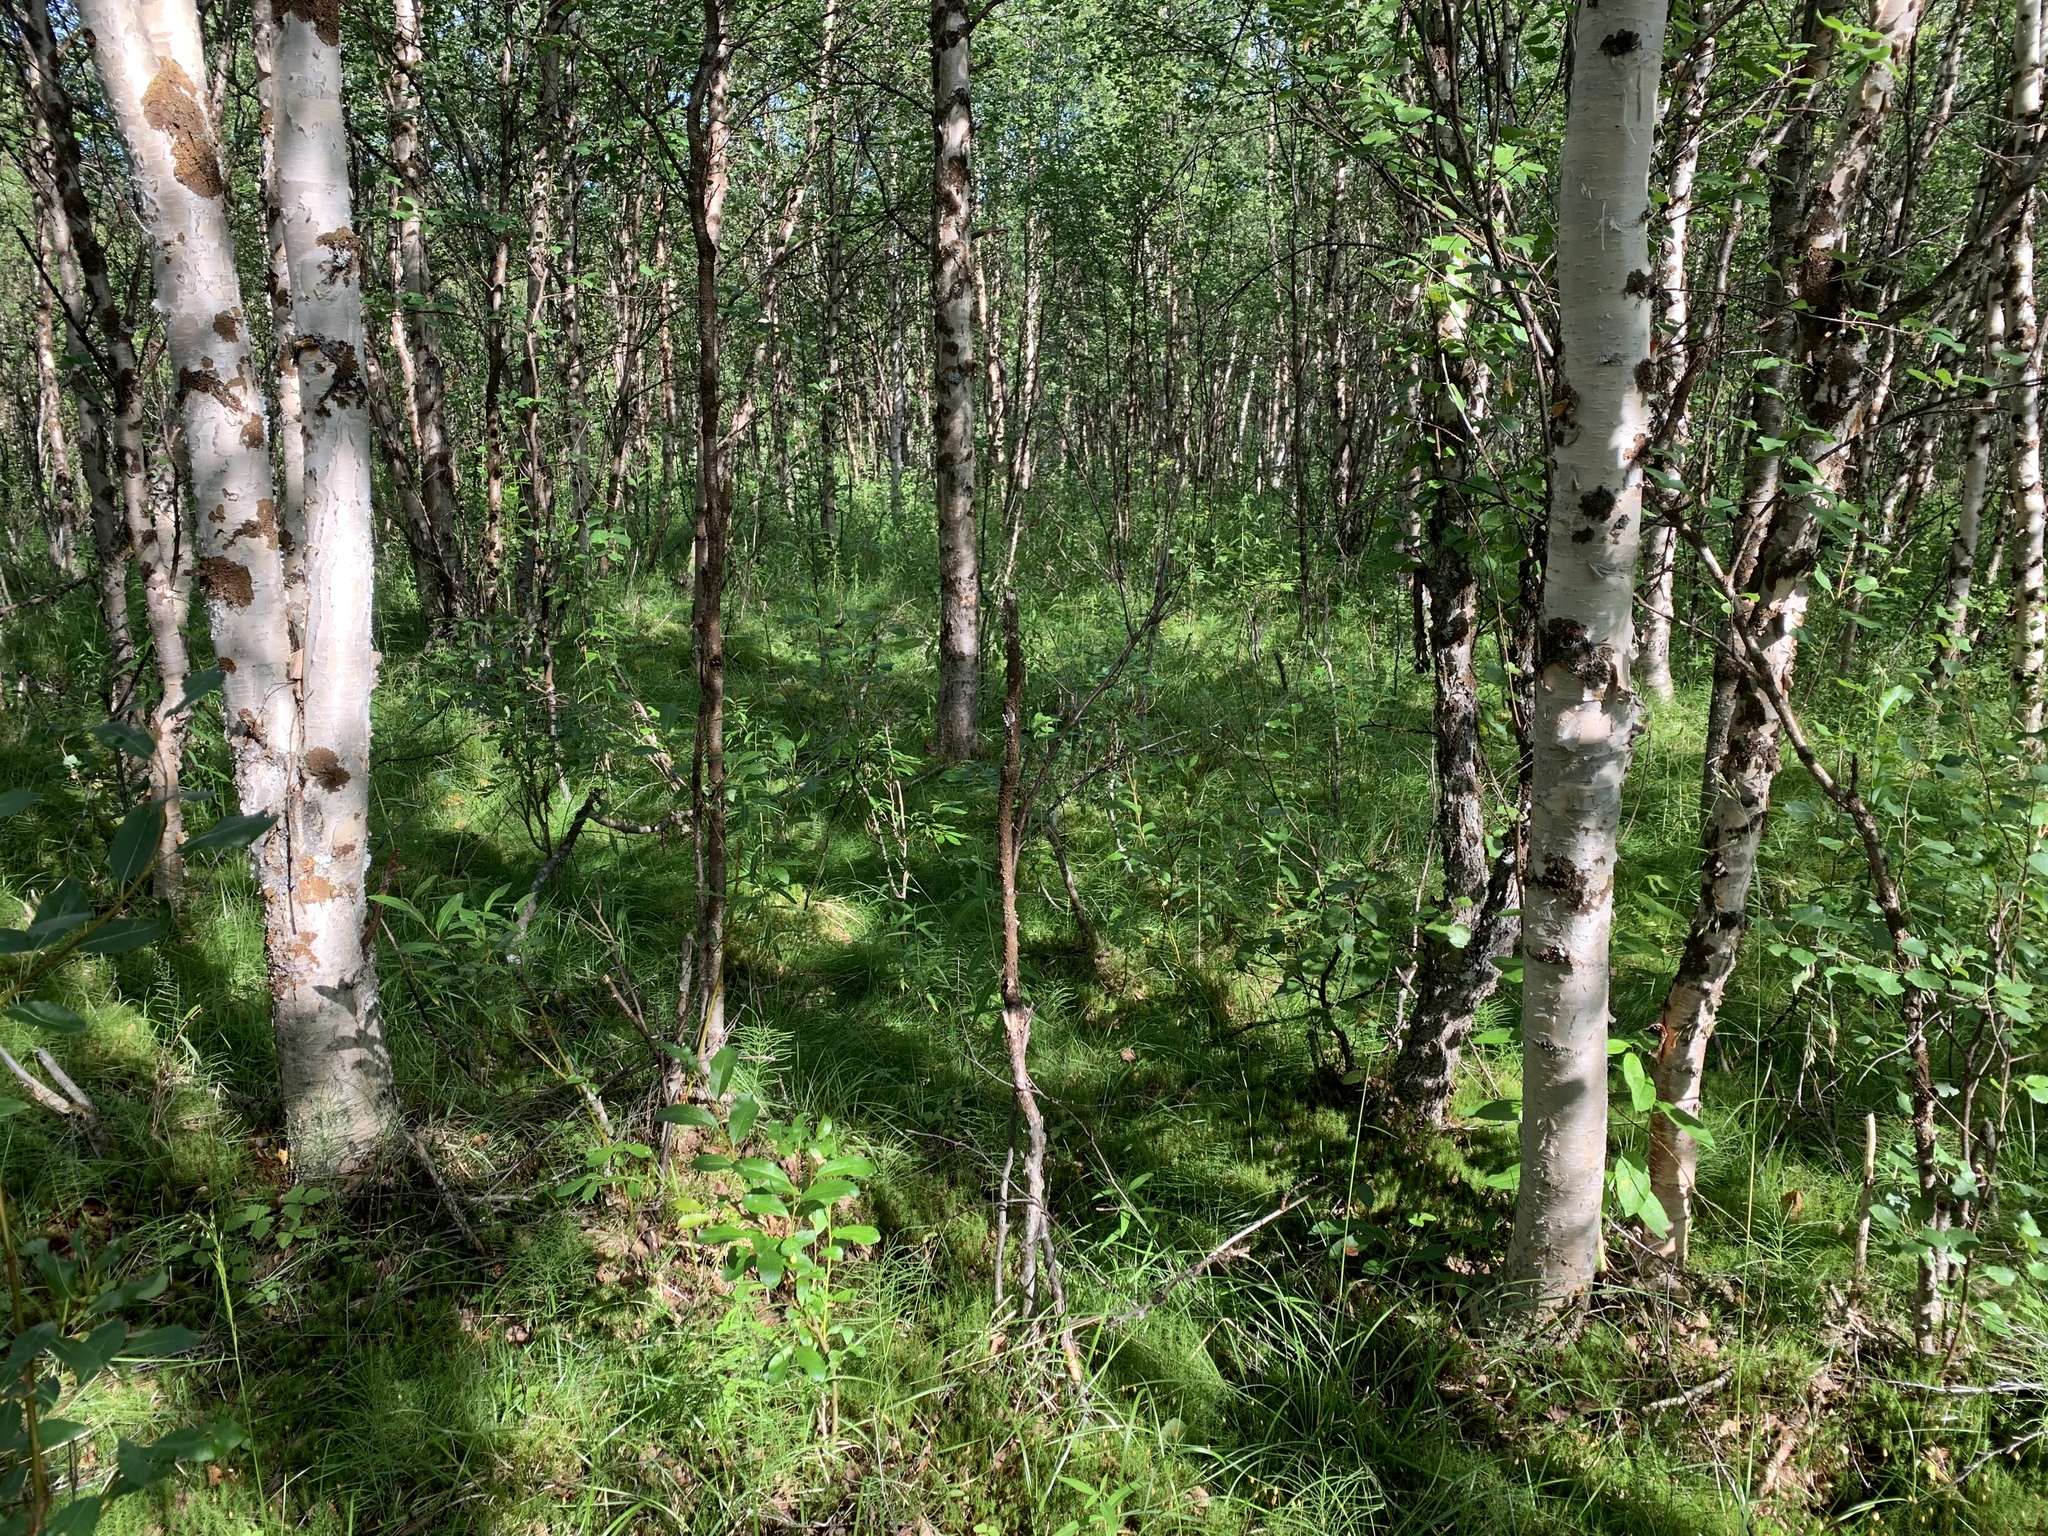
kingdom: Plantae
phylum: Tracheophyta
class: Magnoliopsida
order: Fagales
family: Betulaceae
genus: Betula
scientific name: Betula pubescens
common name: Downy birch
